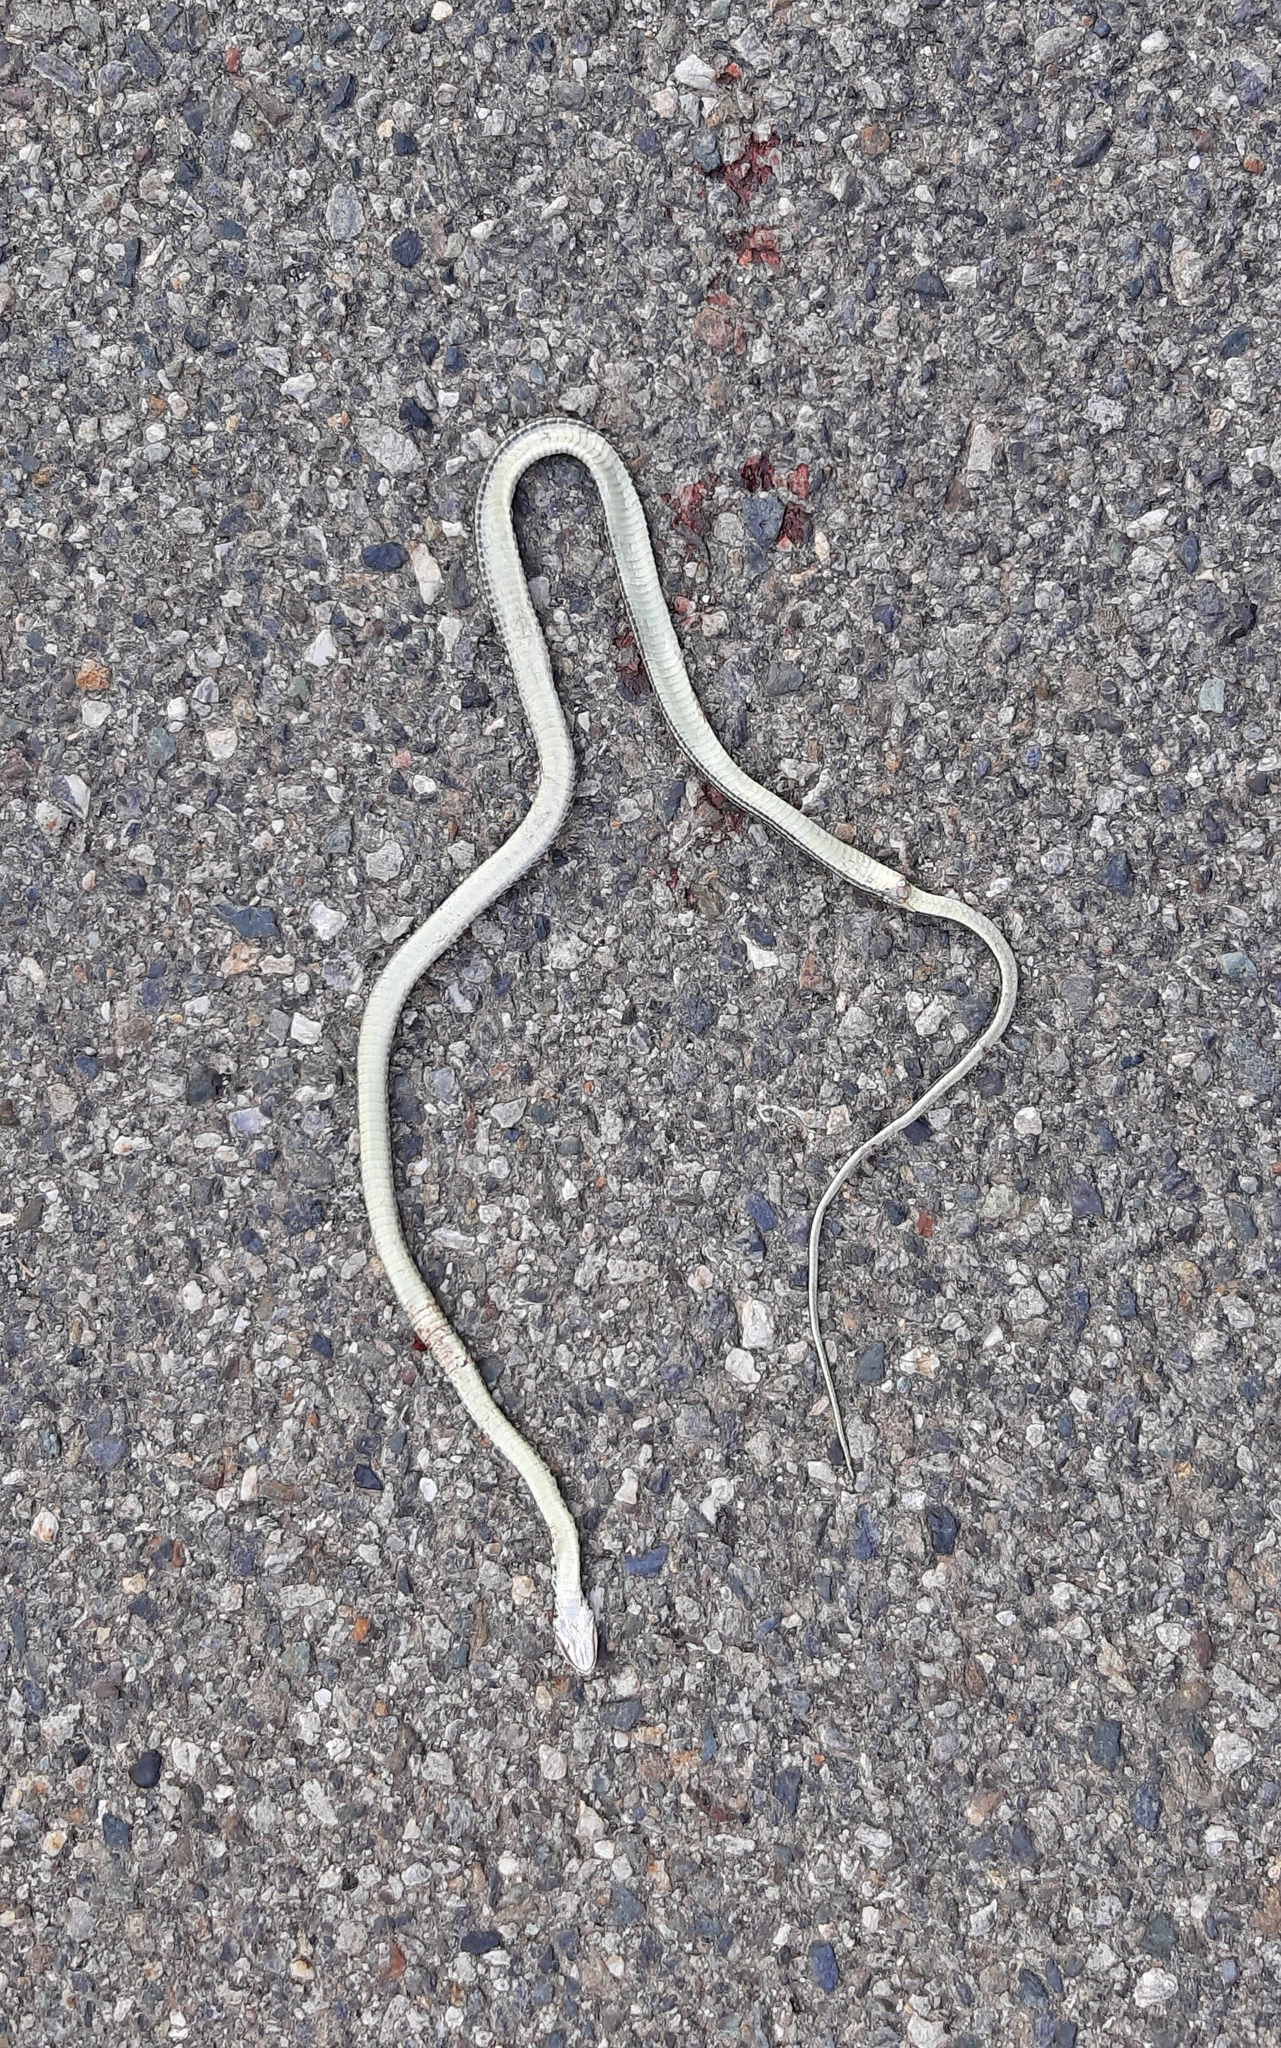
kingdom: Animalia
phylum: Chordata
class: Squamata
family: Colubridae
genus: Hierophis
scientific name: Hierophis viridiflavus
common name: Green whip snake
